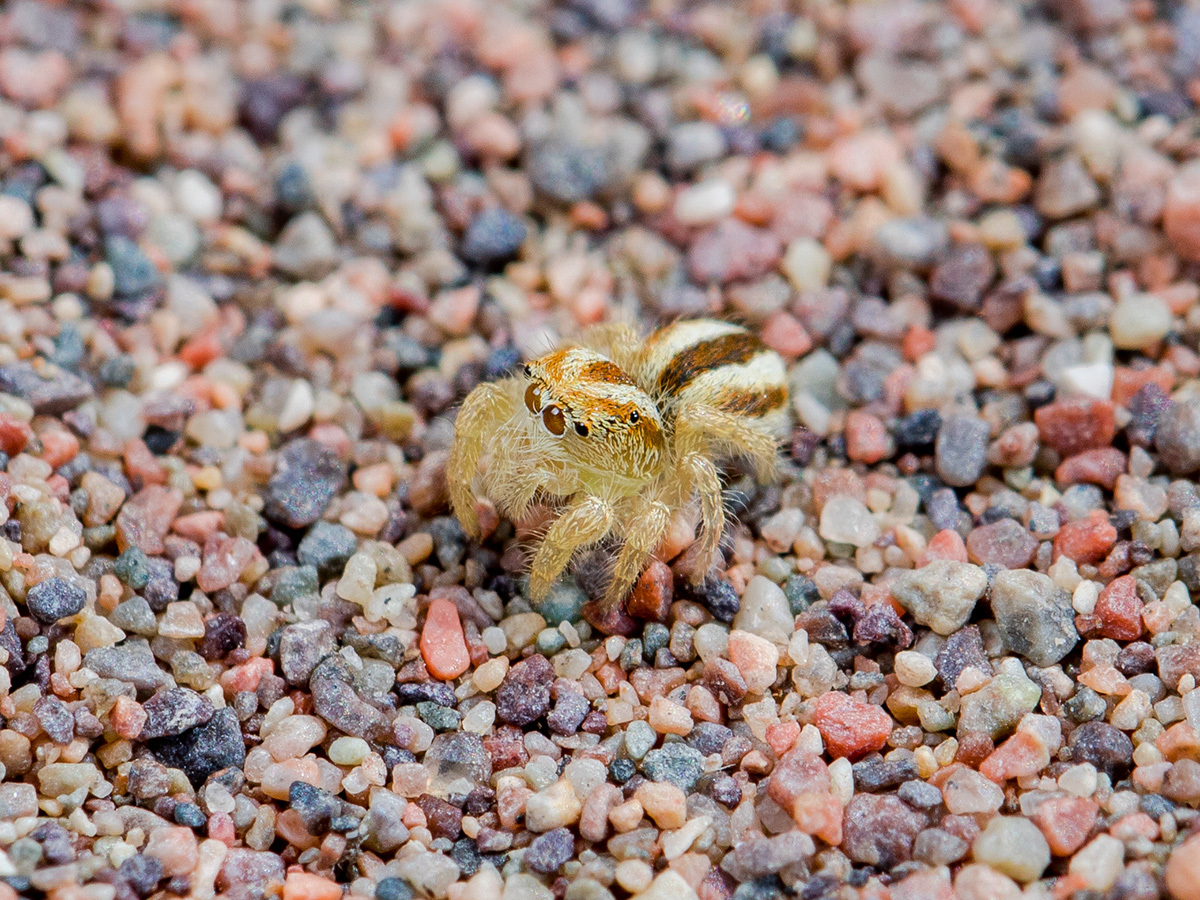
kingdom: Animalia
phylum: Arthropoda
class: Arachnida
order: Araneae
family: Salticidae
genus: Pseudomogrus
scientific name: Pseudomogrus zhilgaensis
